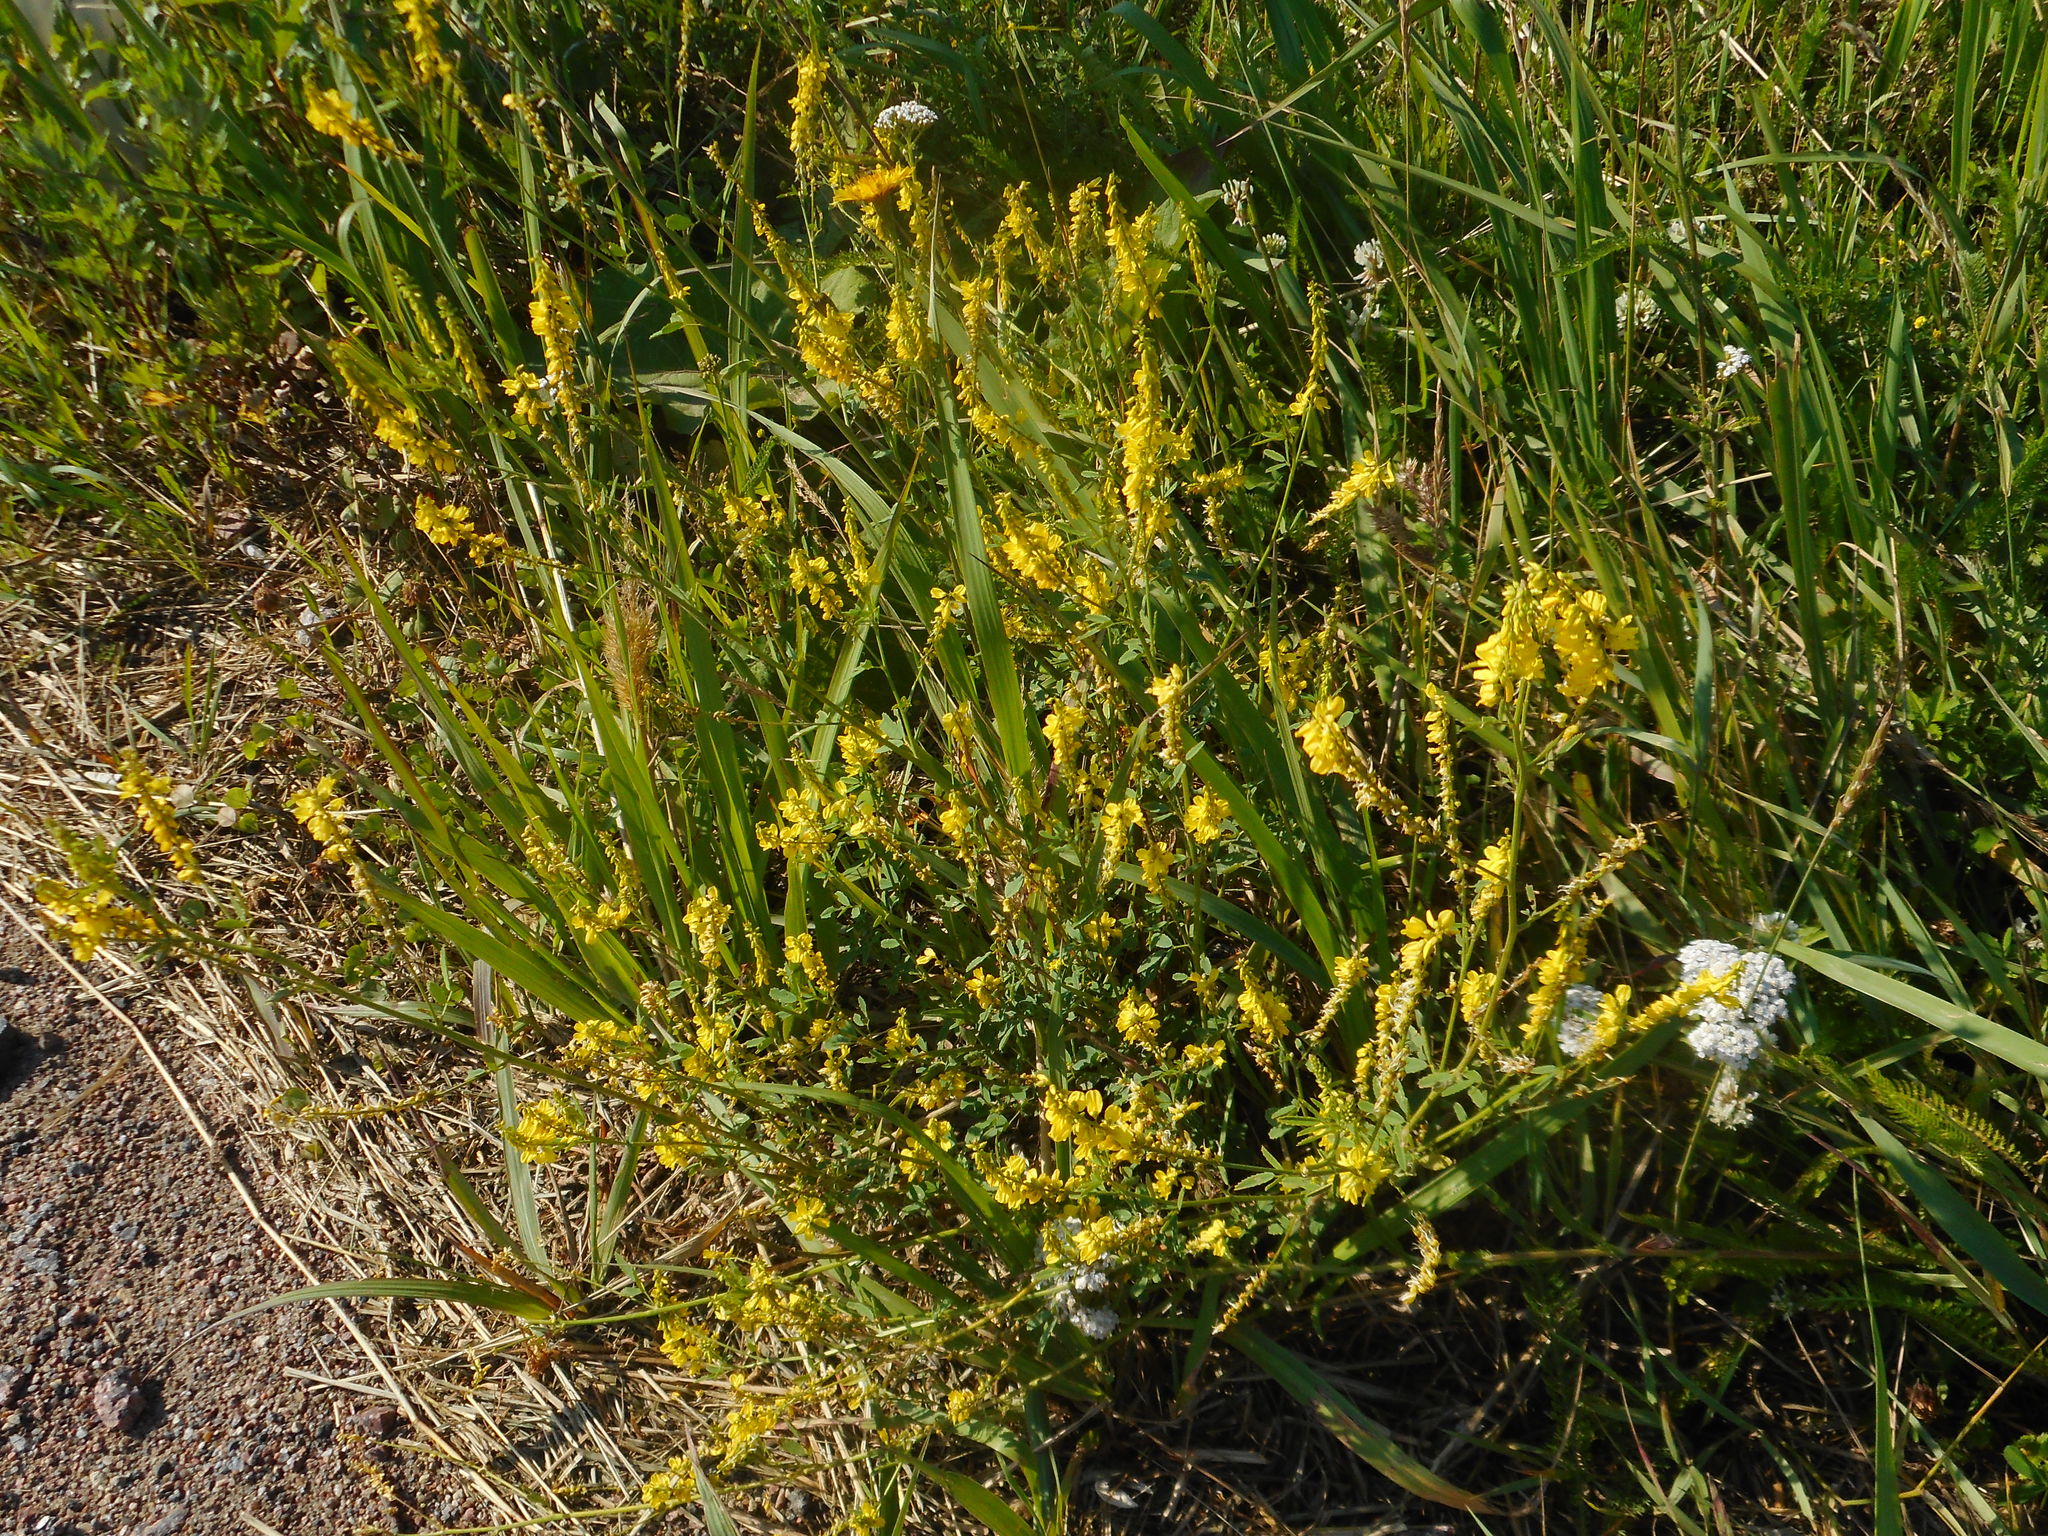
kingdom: Plantae
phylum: Tracheophyta
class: Magnoliopsida
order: Fabales
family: Fabaceae
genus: Melilotus
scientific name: Melilotus officinalis
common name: Sweetclover
